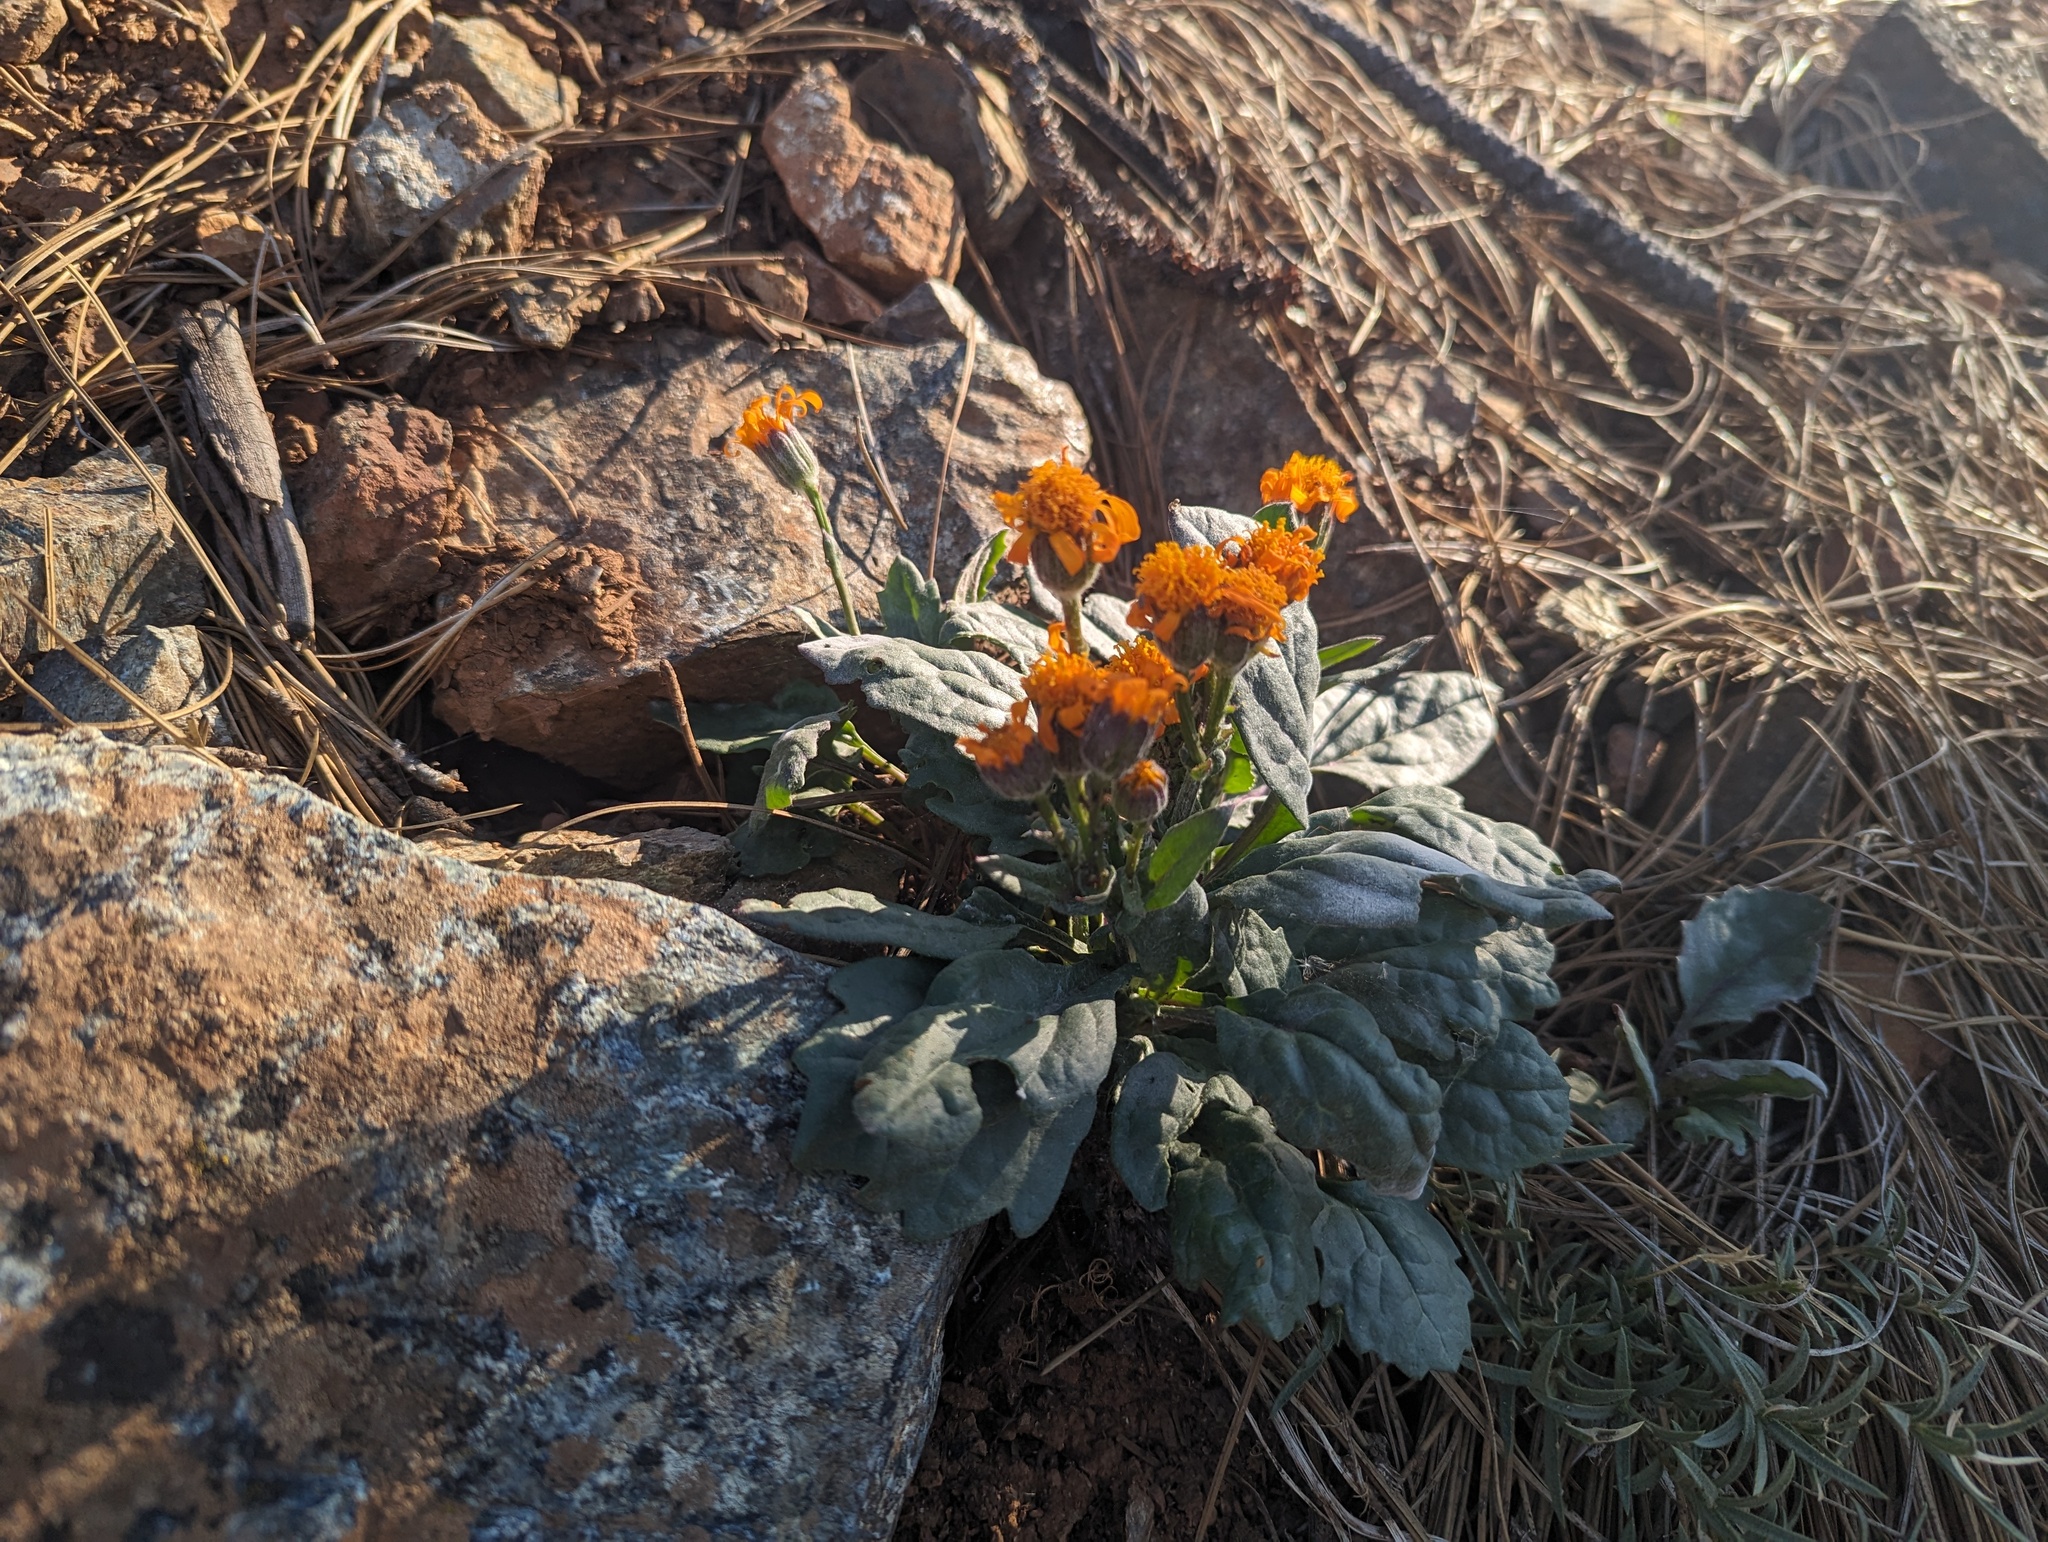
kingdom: Plantae
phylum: Tracheophyta
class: Magnoliopsida
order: Asterales
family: Asteraceae
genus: Packera
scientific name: Packera greenei
